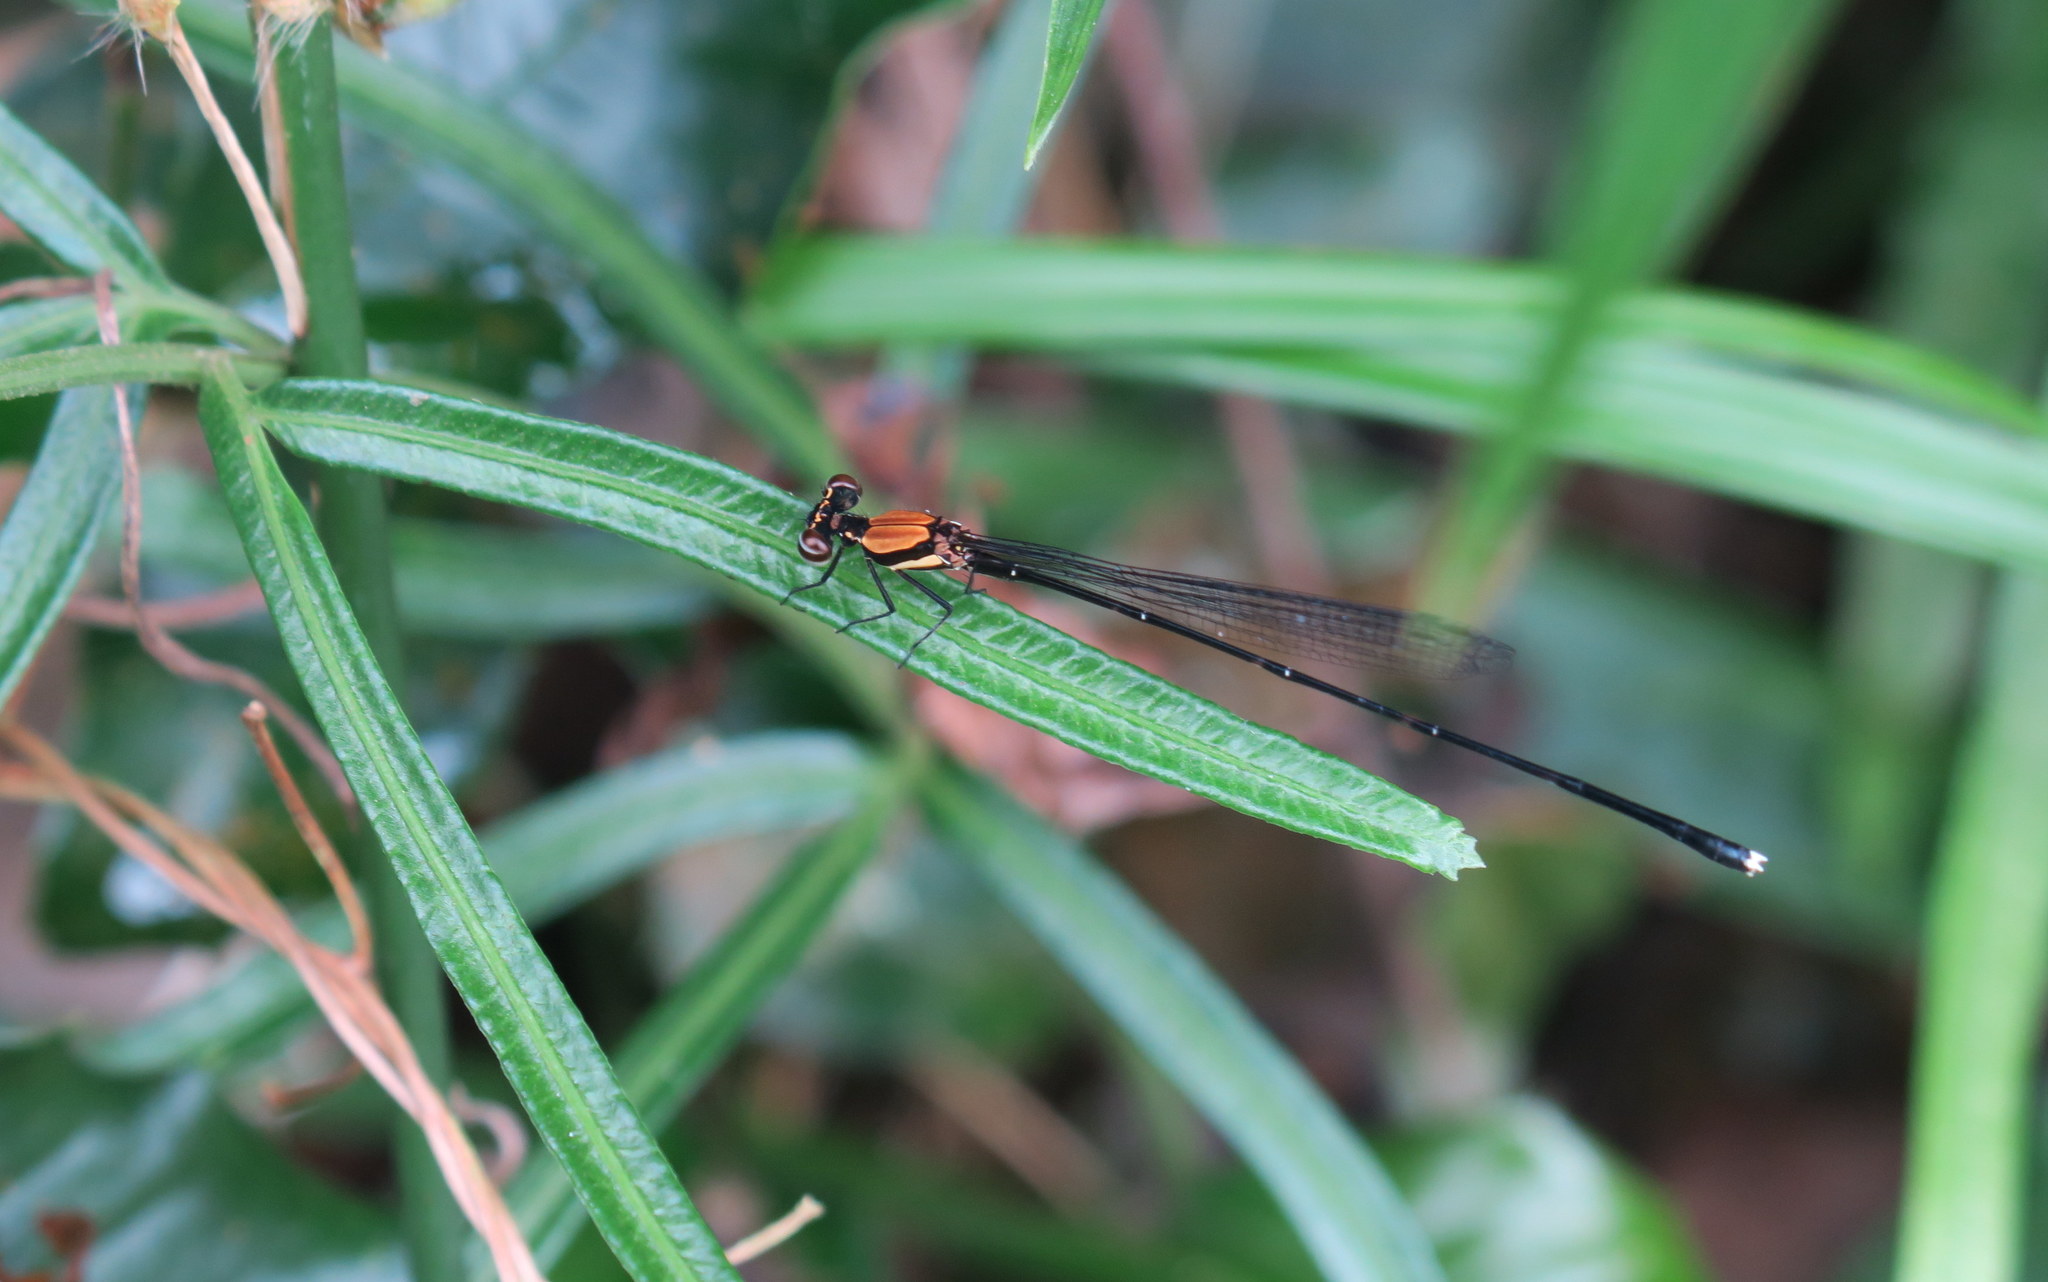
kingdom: Animalia
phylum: Arthropoda
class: Insecta
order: Odonata
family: Platycnemididae
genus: Prodasineura
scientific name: Prodasineura croconota
